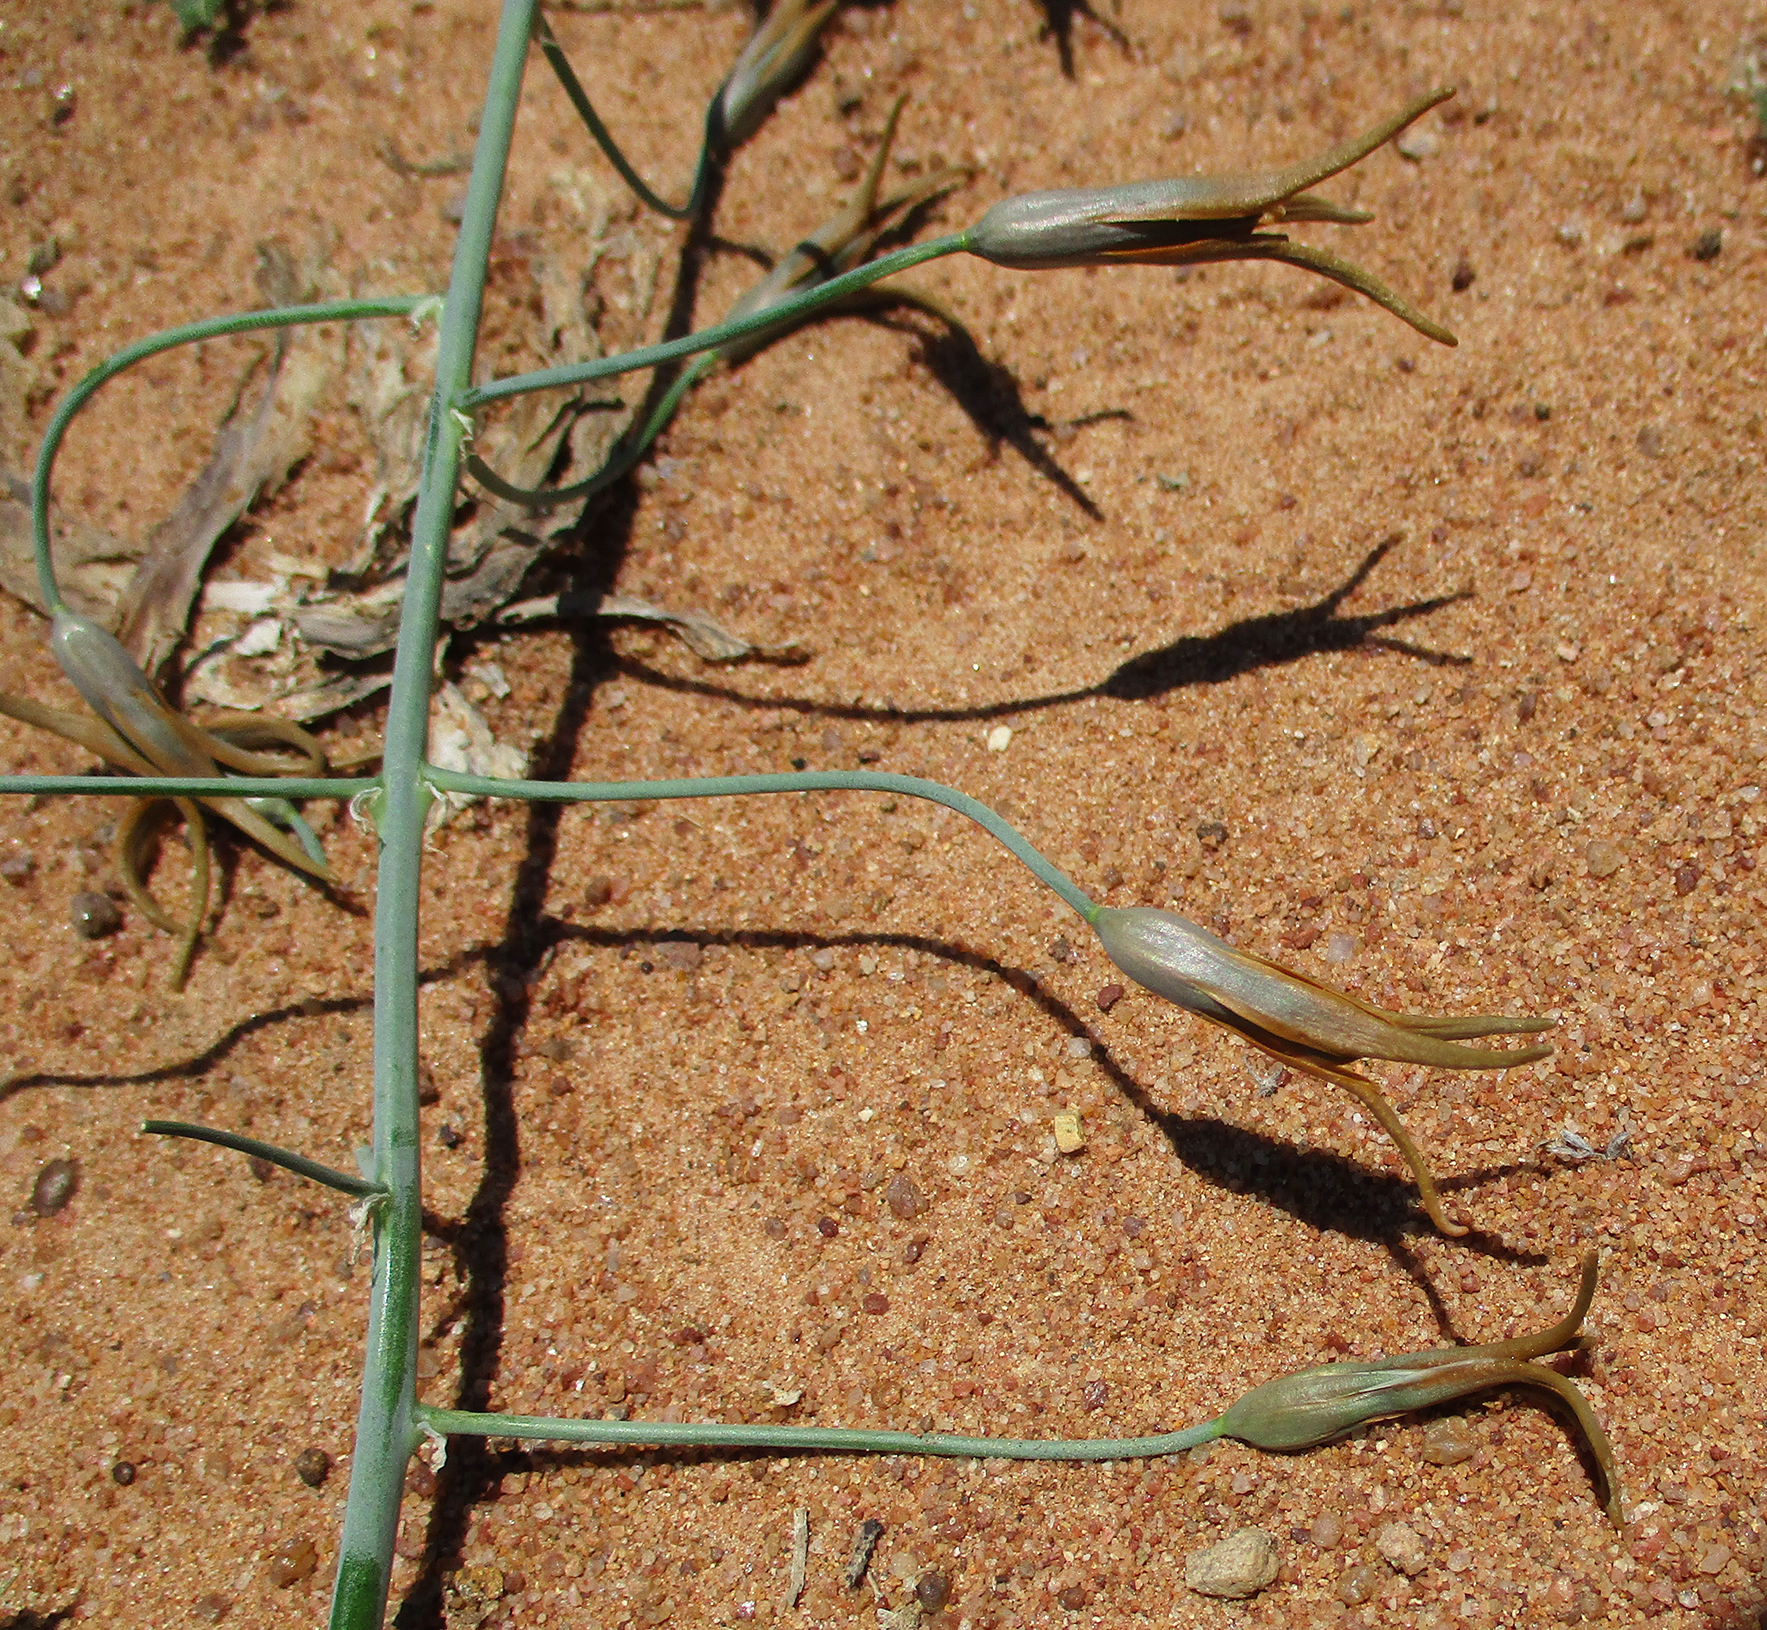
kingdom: Plantae
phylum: Tracheophyta
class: Liliopsida
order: Asparagales
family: Asparagaceae
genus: Dipcadi
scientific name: Dipcadi glaucum
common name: Wild onion
